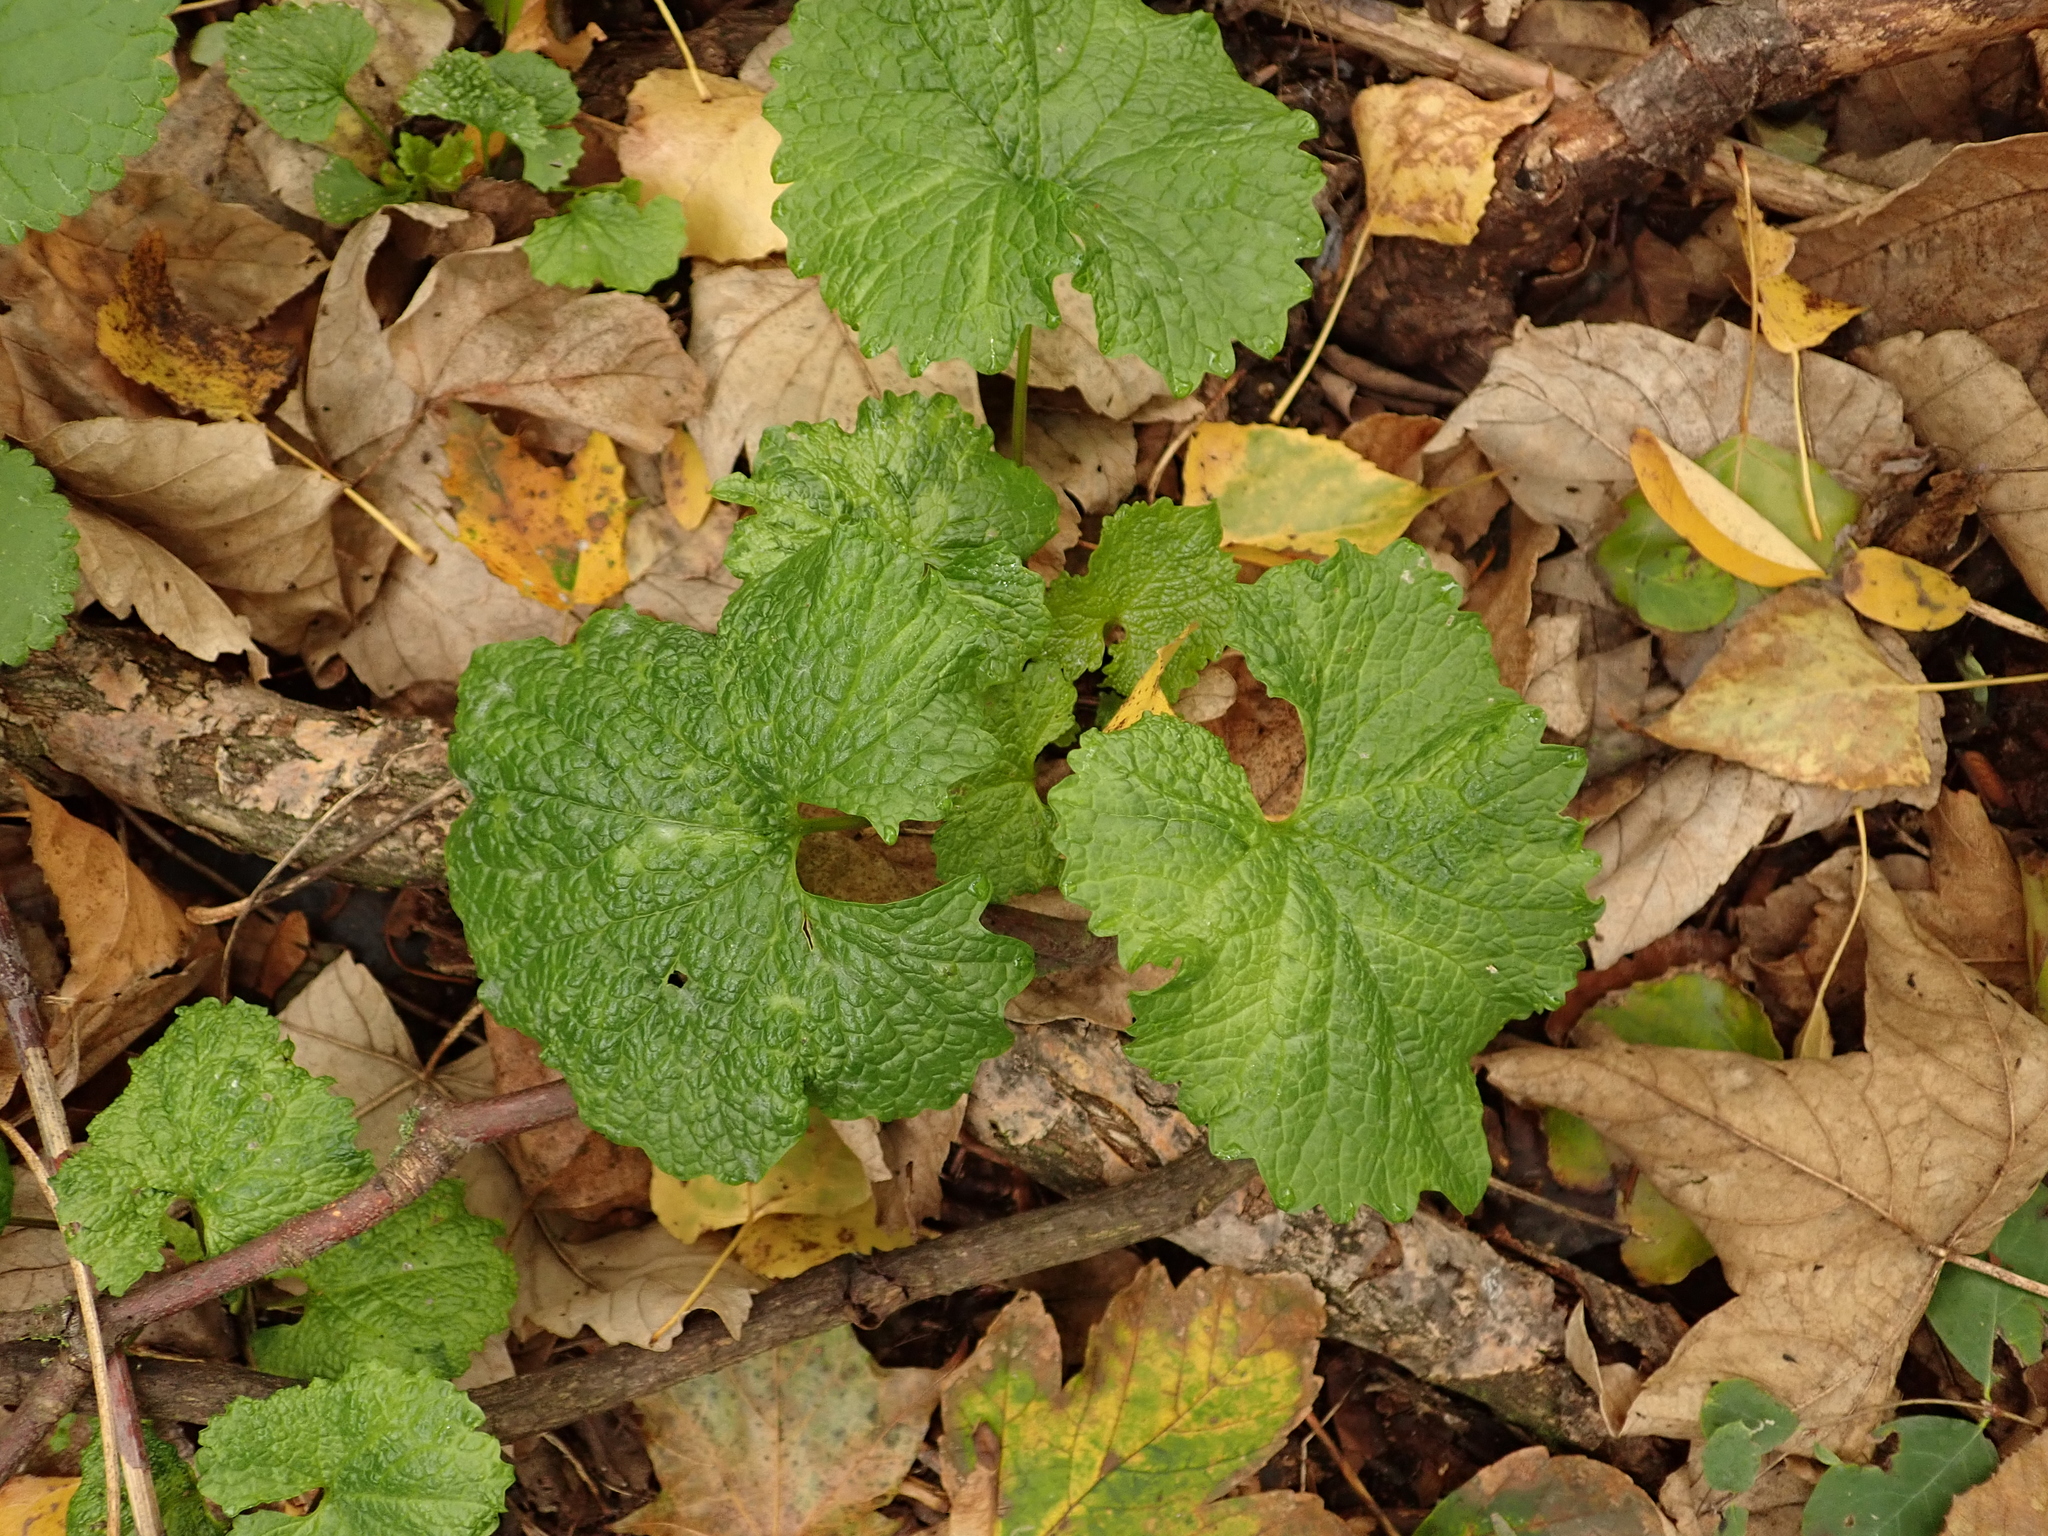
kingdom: Plantae
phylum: Tracheophyta
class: Magnoliopsida
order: Brassicales
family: Brassicaceae
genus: Alliaria
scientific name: Alliaria petiolata
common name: Garlic mustard
